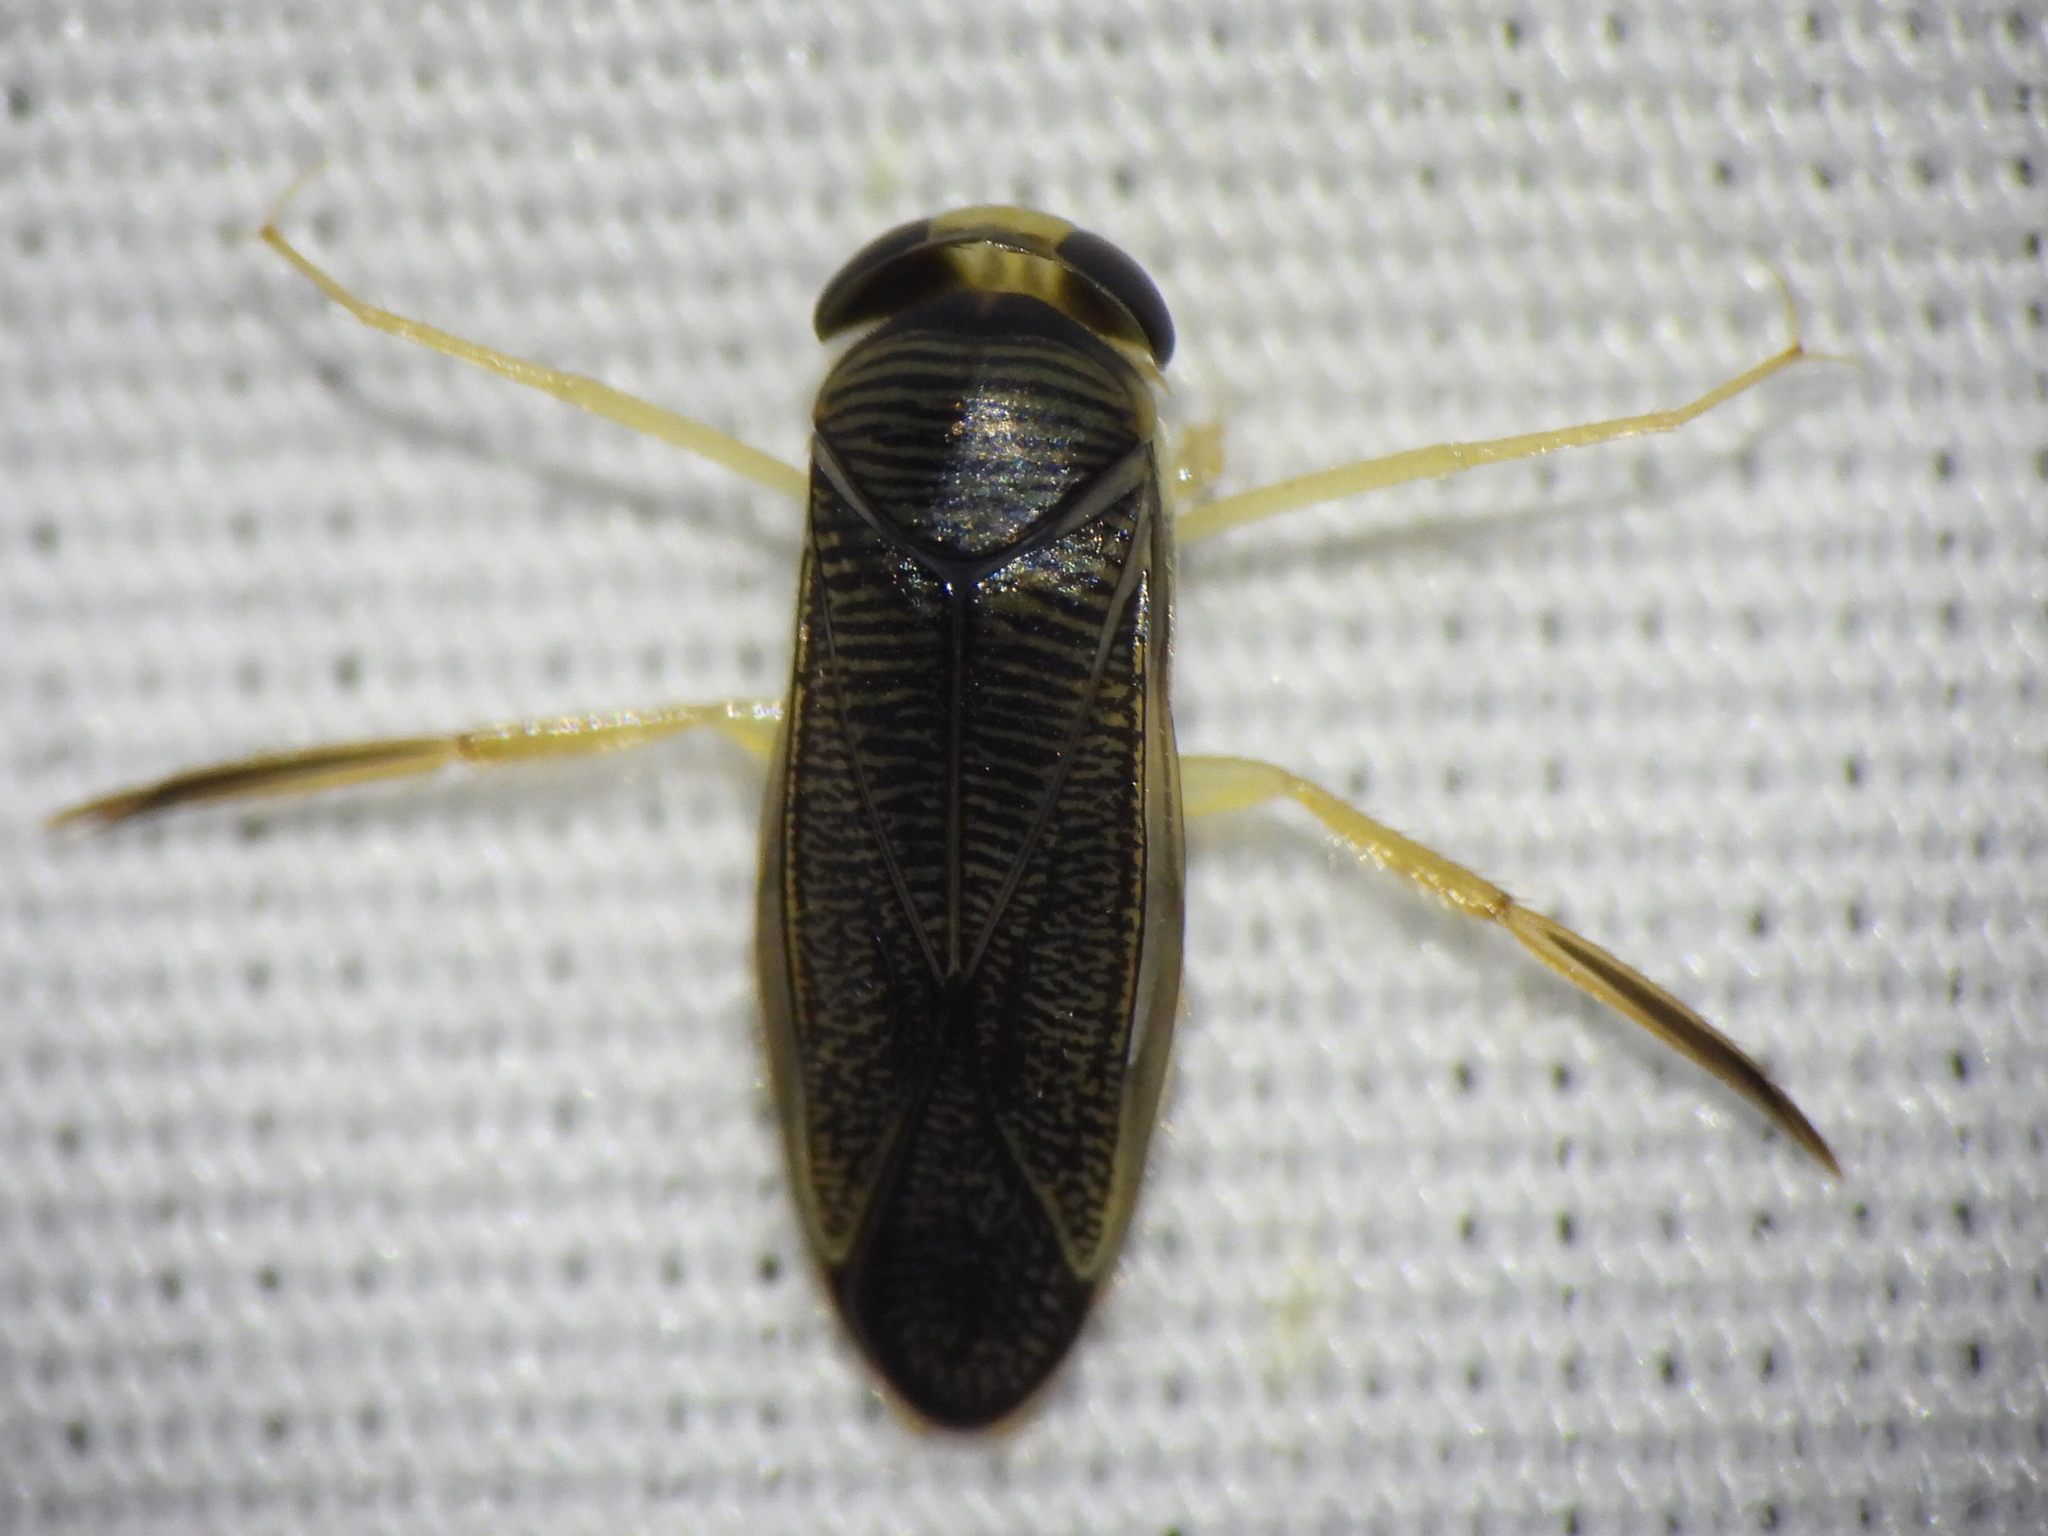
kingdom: Animalia
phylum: Arthropoda
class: Insecta
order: Hemiptera
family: Corixidae
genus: Sigara
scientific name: Sigara
